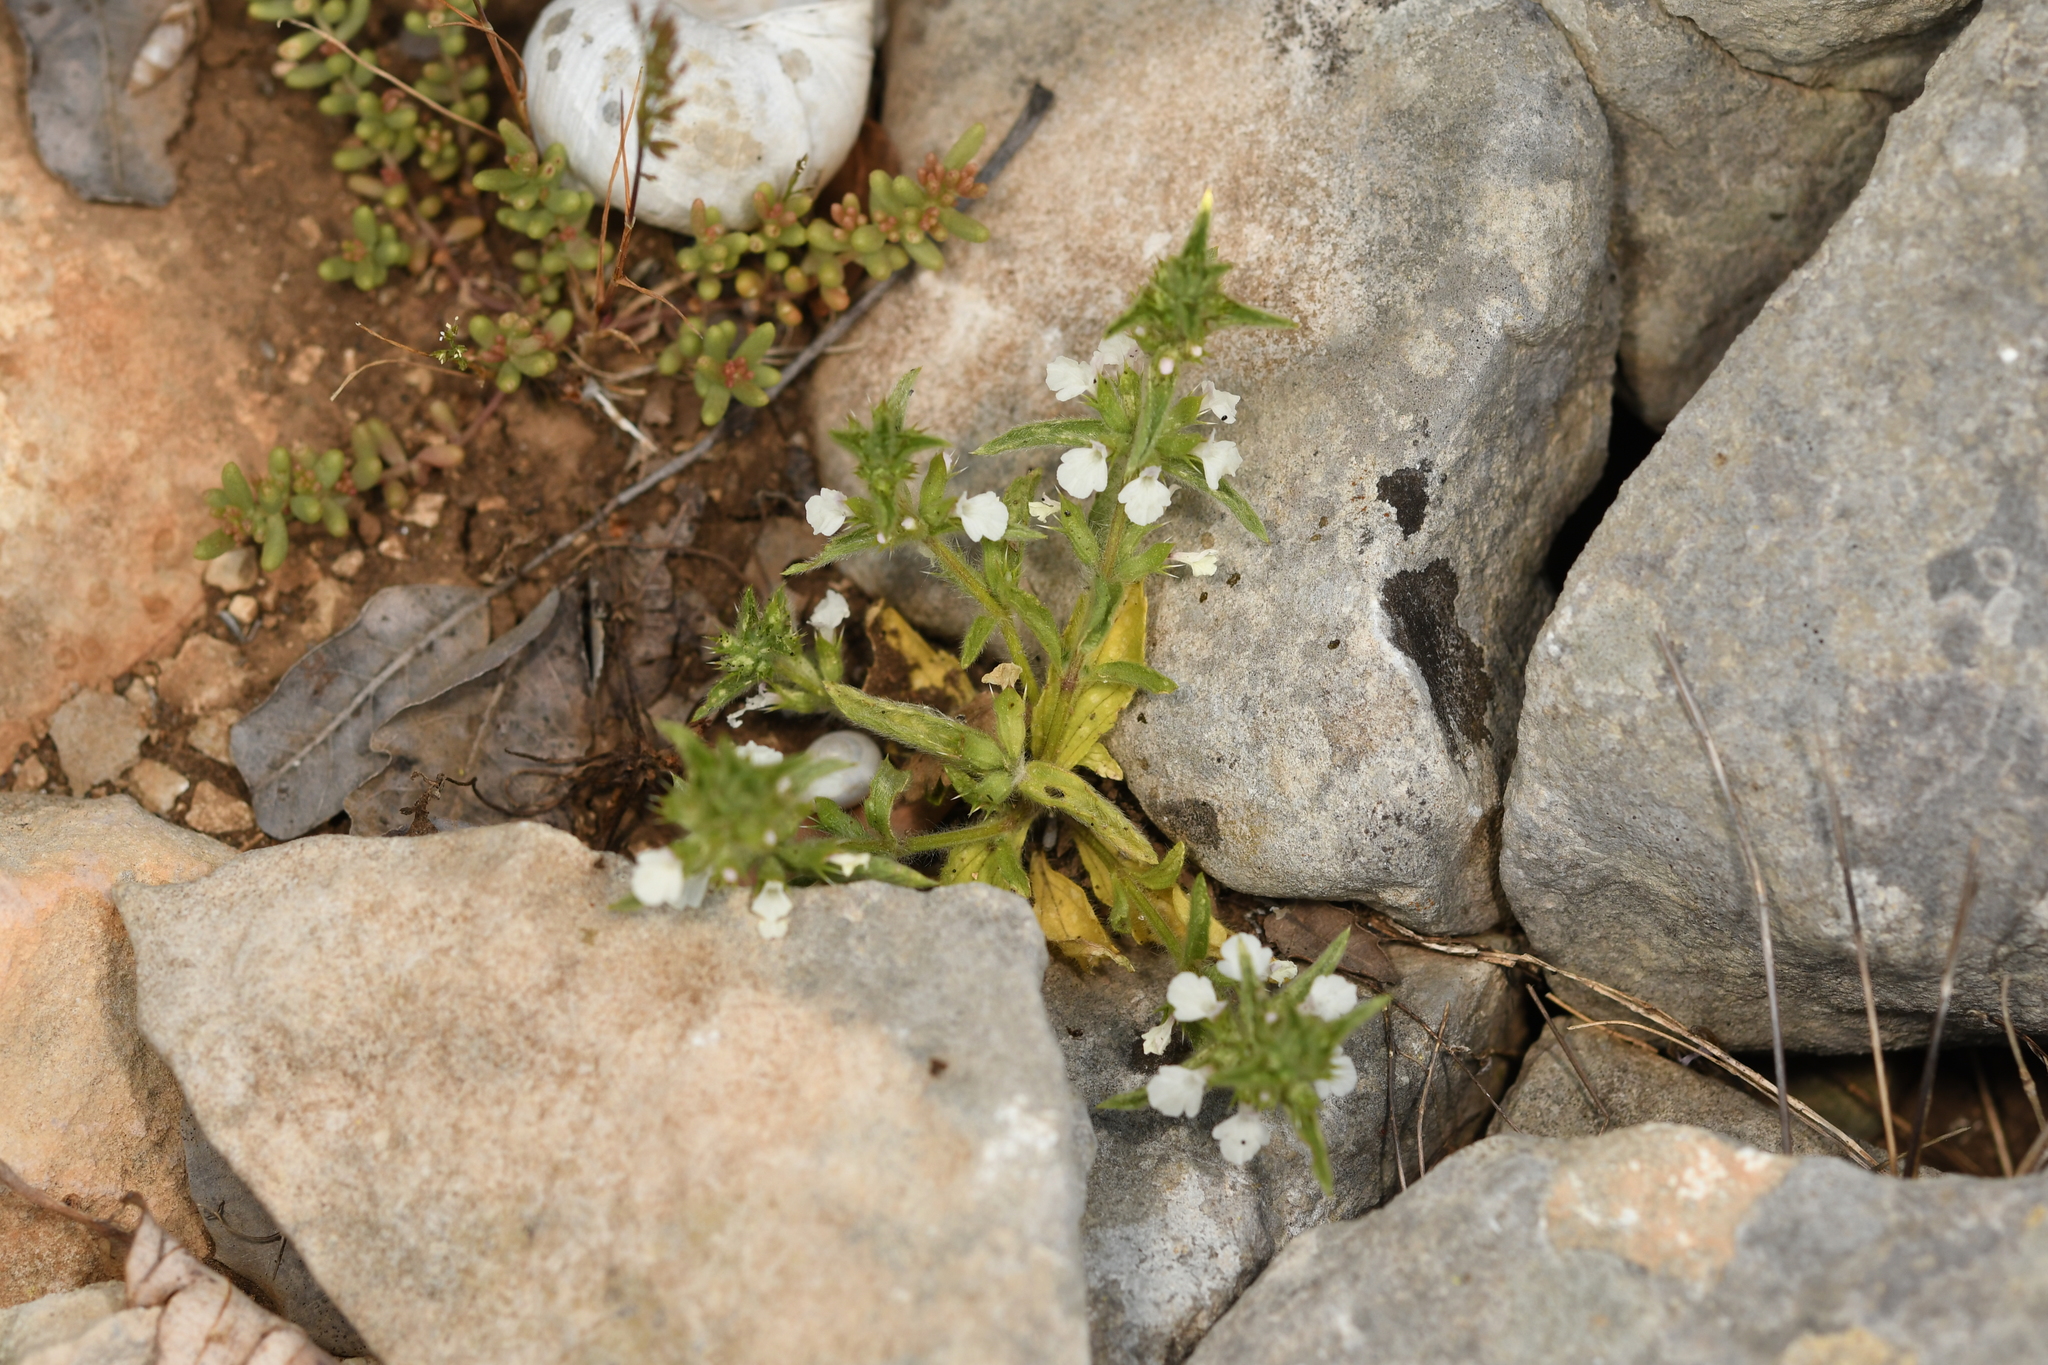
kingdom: Plantae
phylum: Tracheophyta
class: Magnoliopsida
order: Lamiales
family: Lamiaceae
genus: Sideritis
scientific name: Sideritis romana
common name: Simplebeak ironwort
